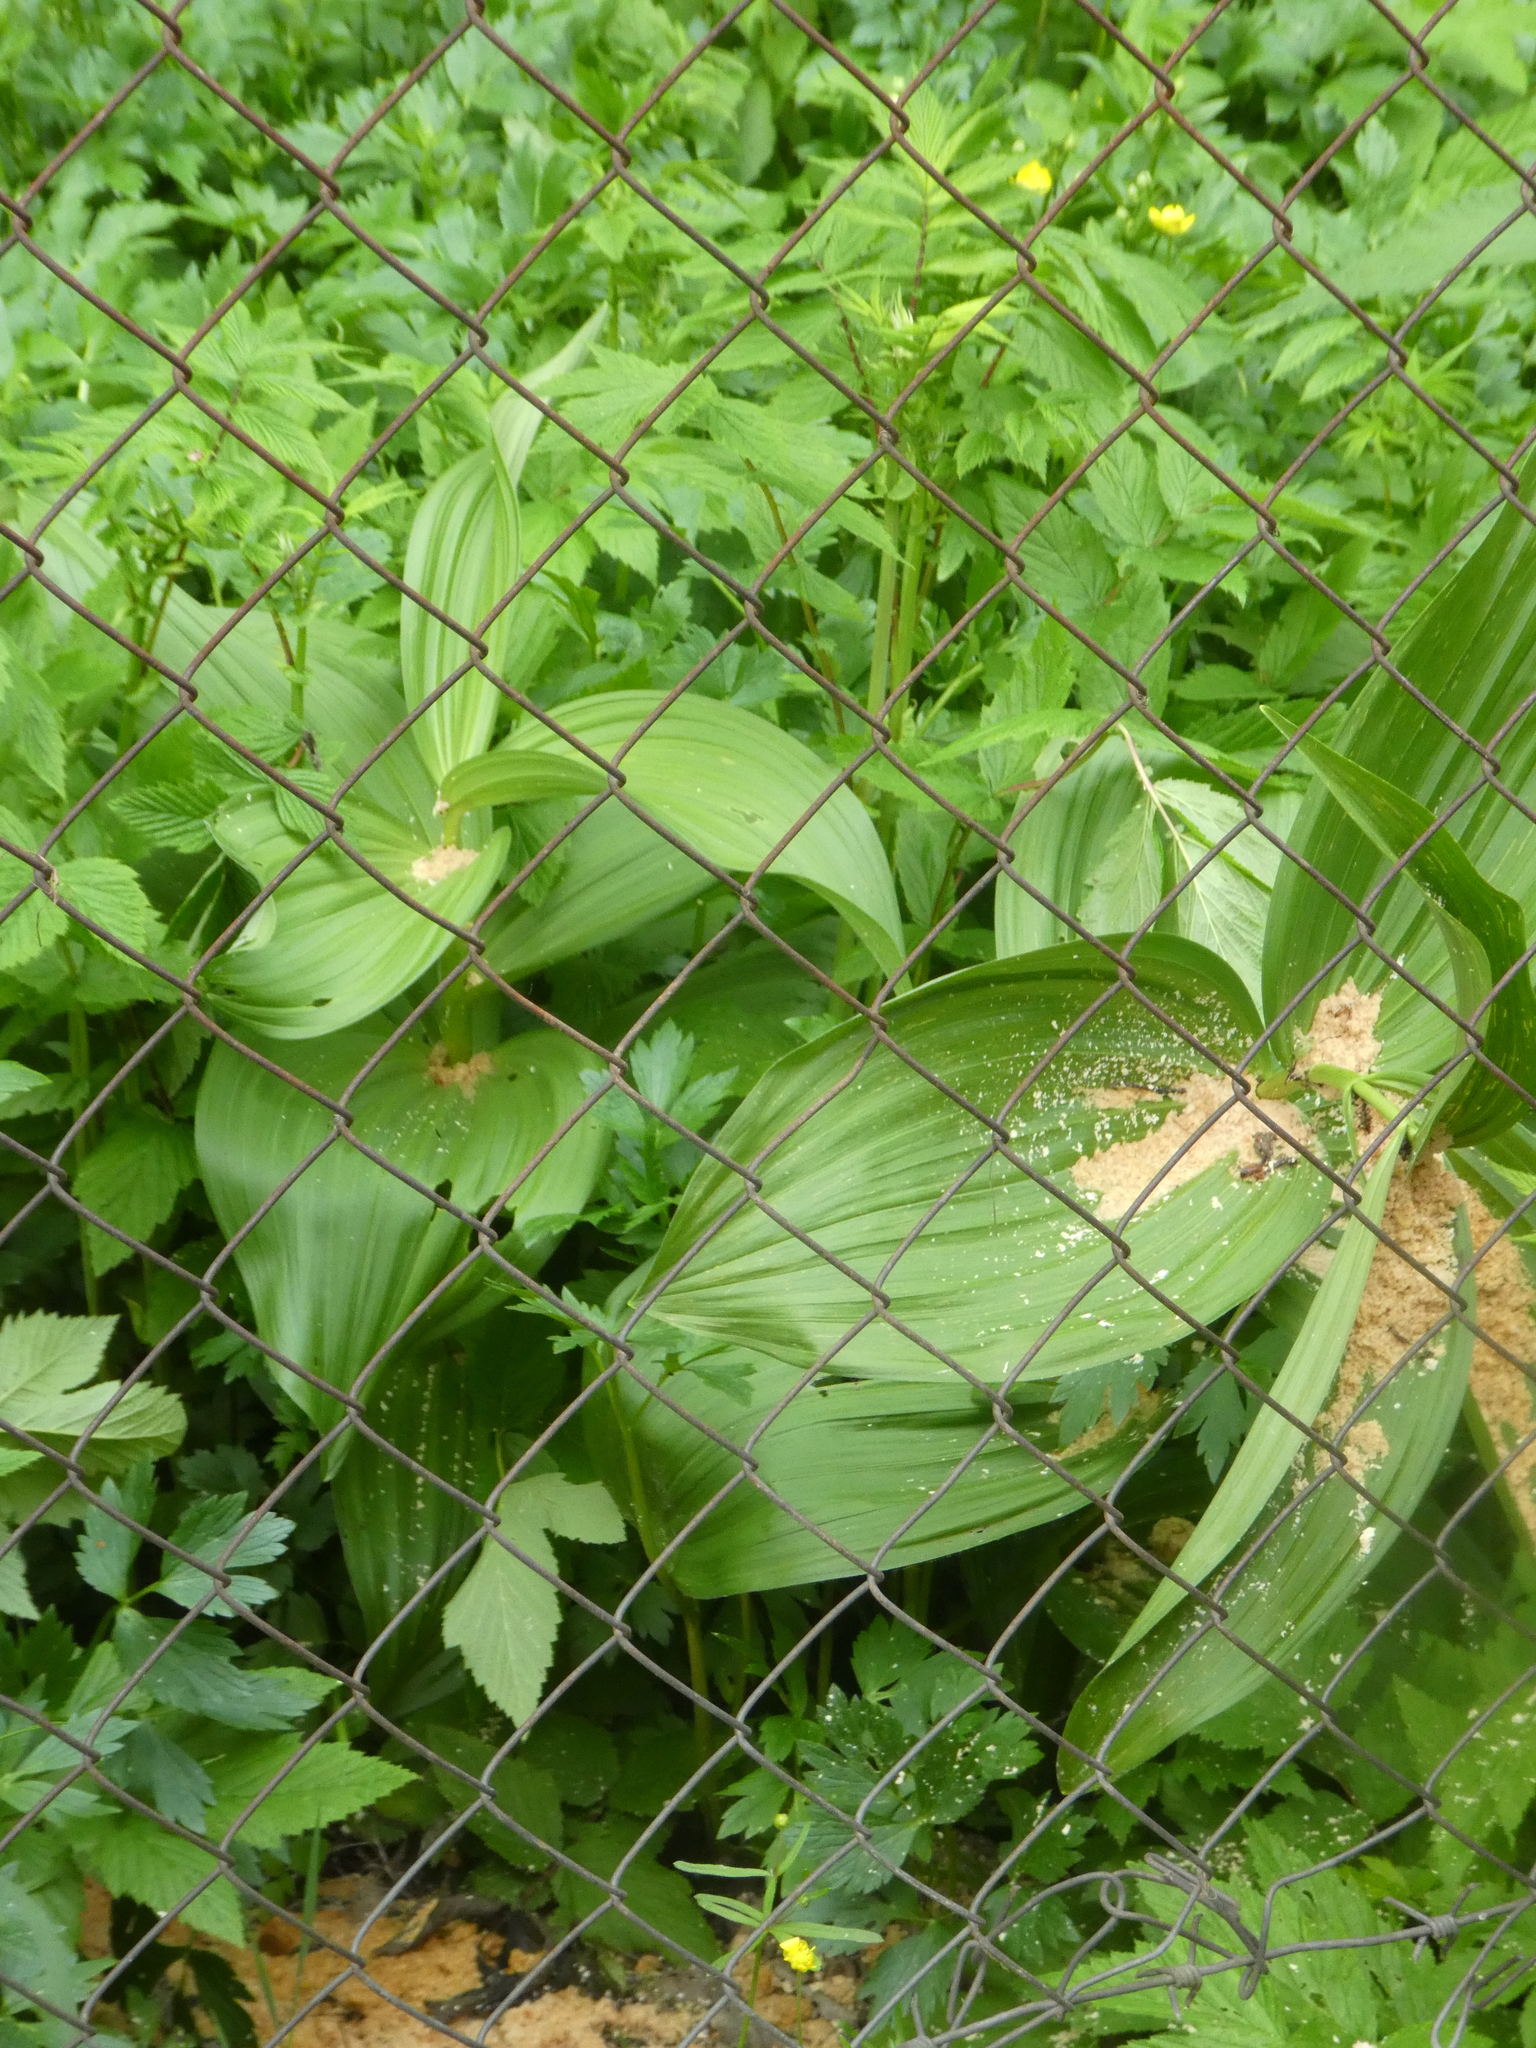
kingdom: Plantae
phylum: Tracheophyta
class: Liliopsida
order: Liliales
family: Melanthiaceae
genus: Veratrum
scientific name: Veratrum lobelianum
